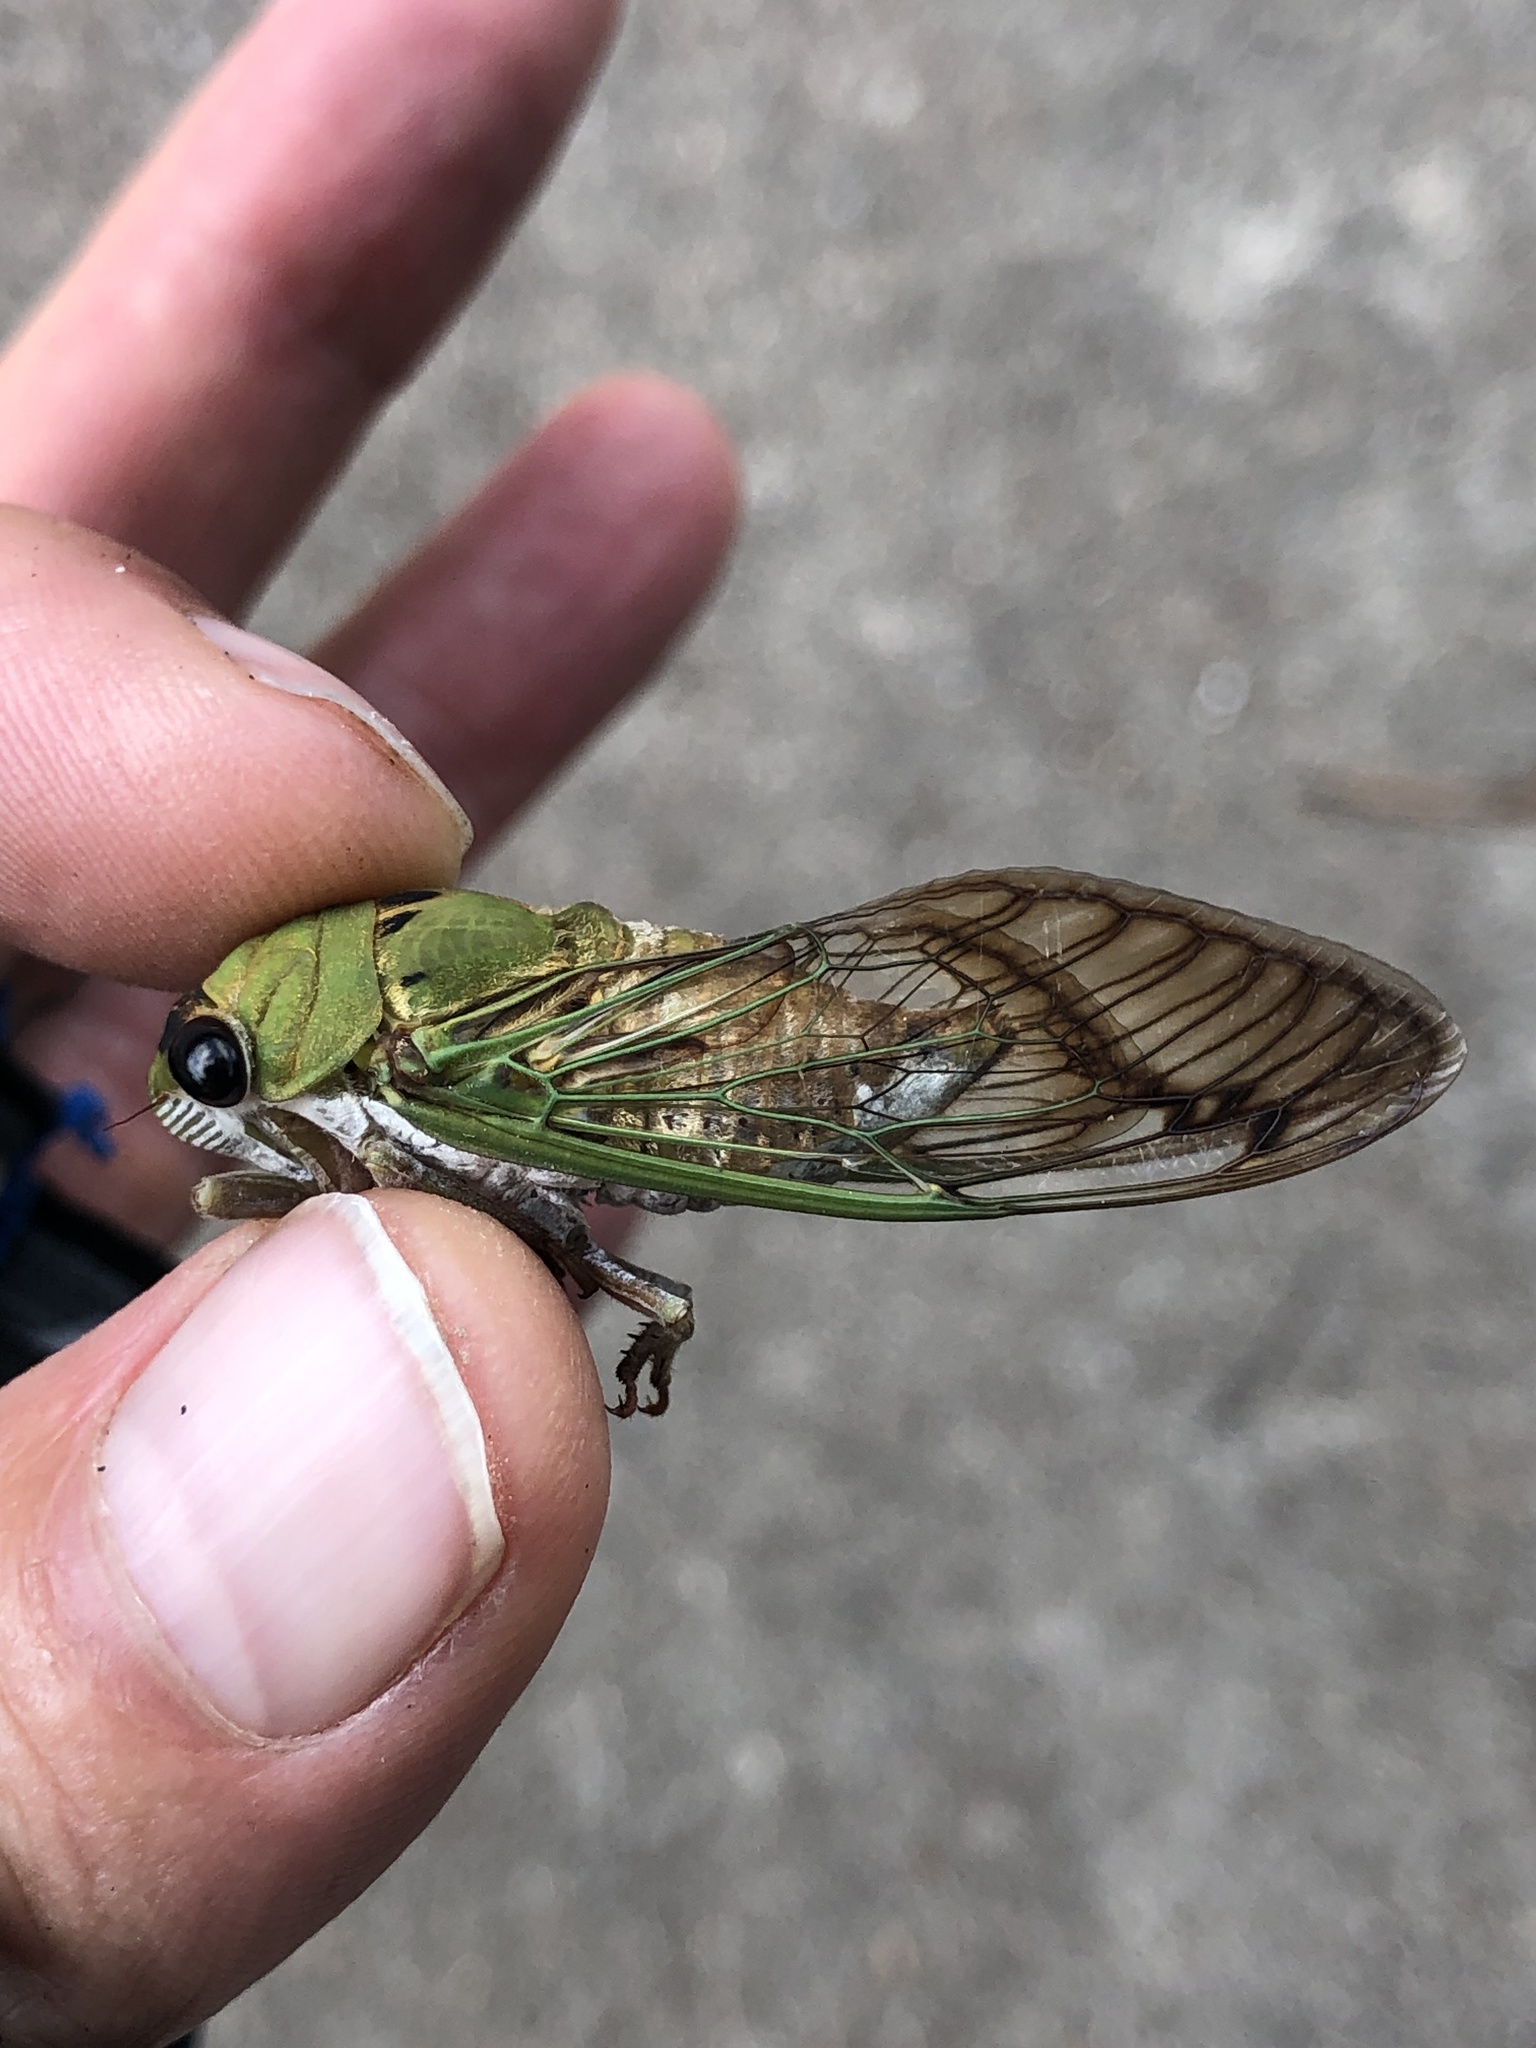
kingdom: Animalia
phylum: Arthropoda
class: Insecta
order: Hemiptera
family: Cicadidae
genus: Neotibicen
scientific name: Neotibicen superbus
